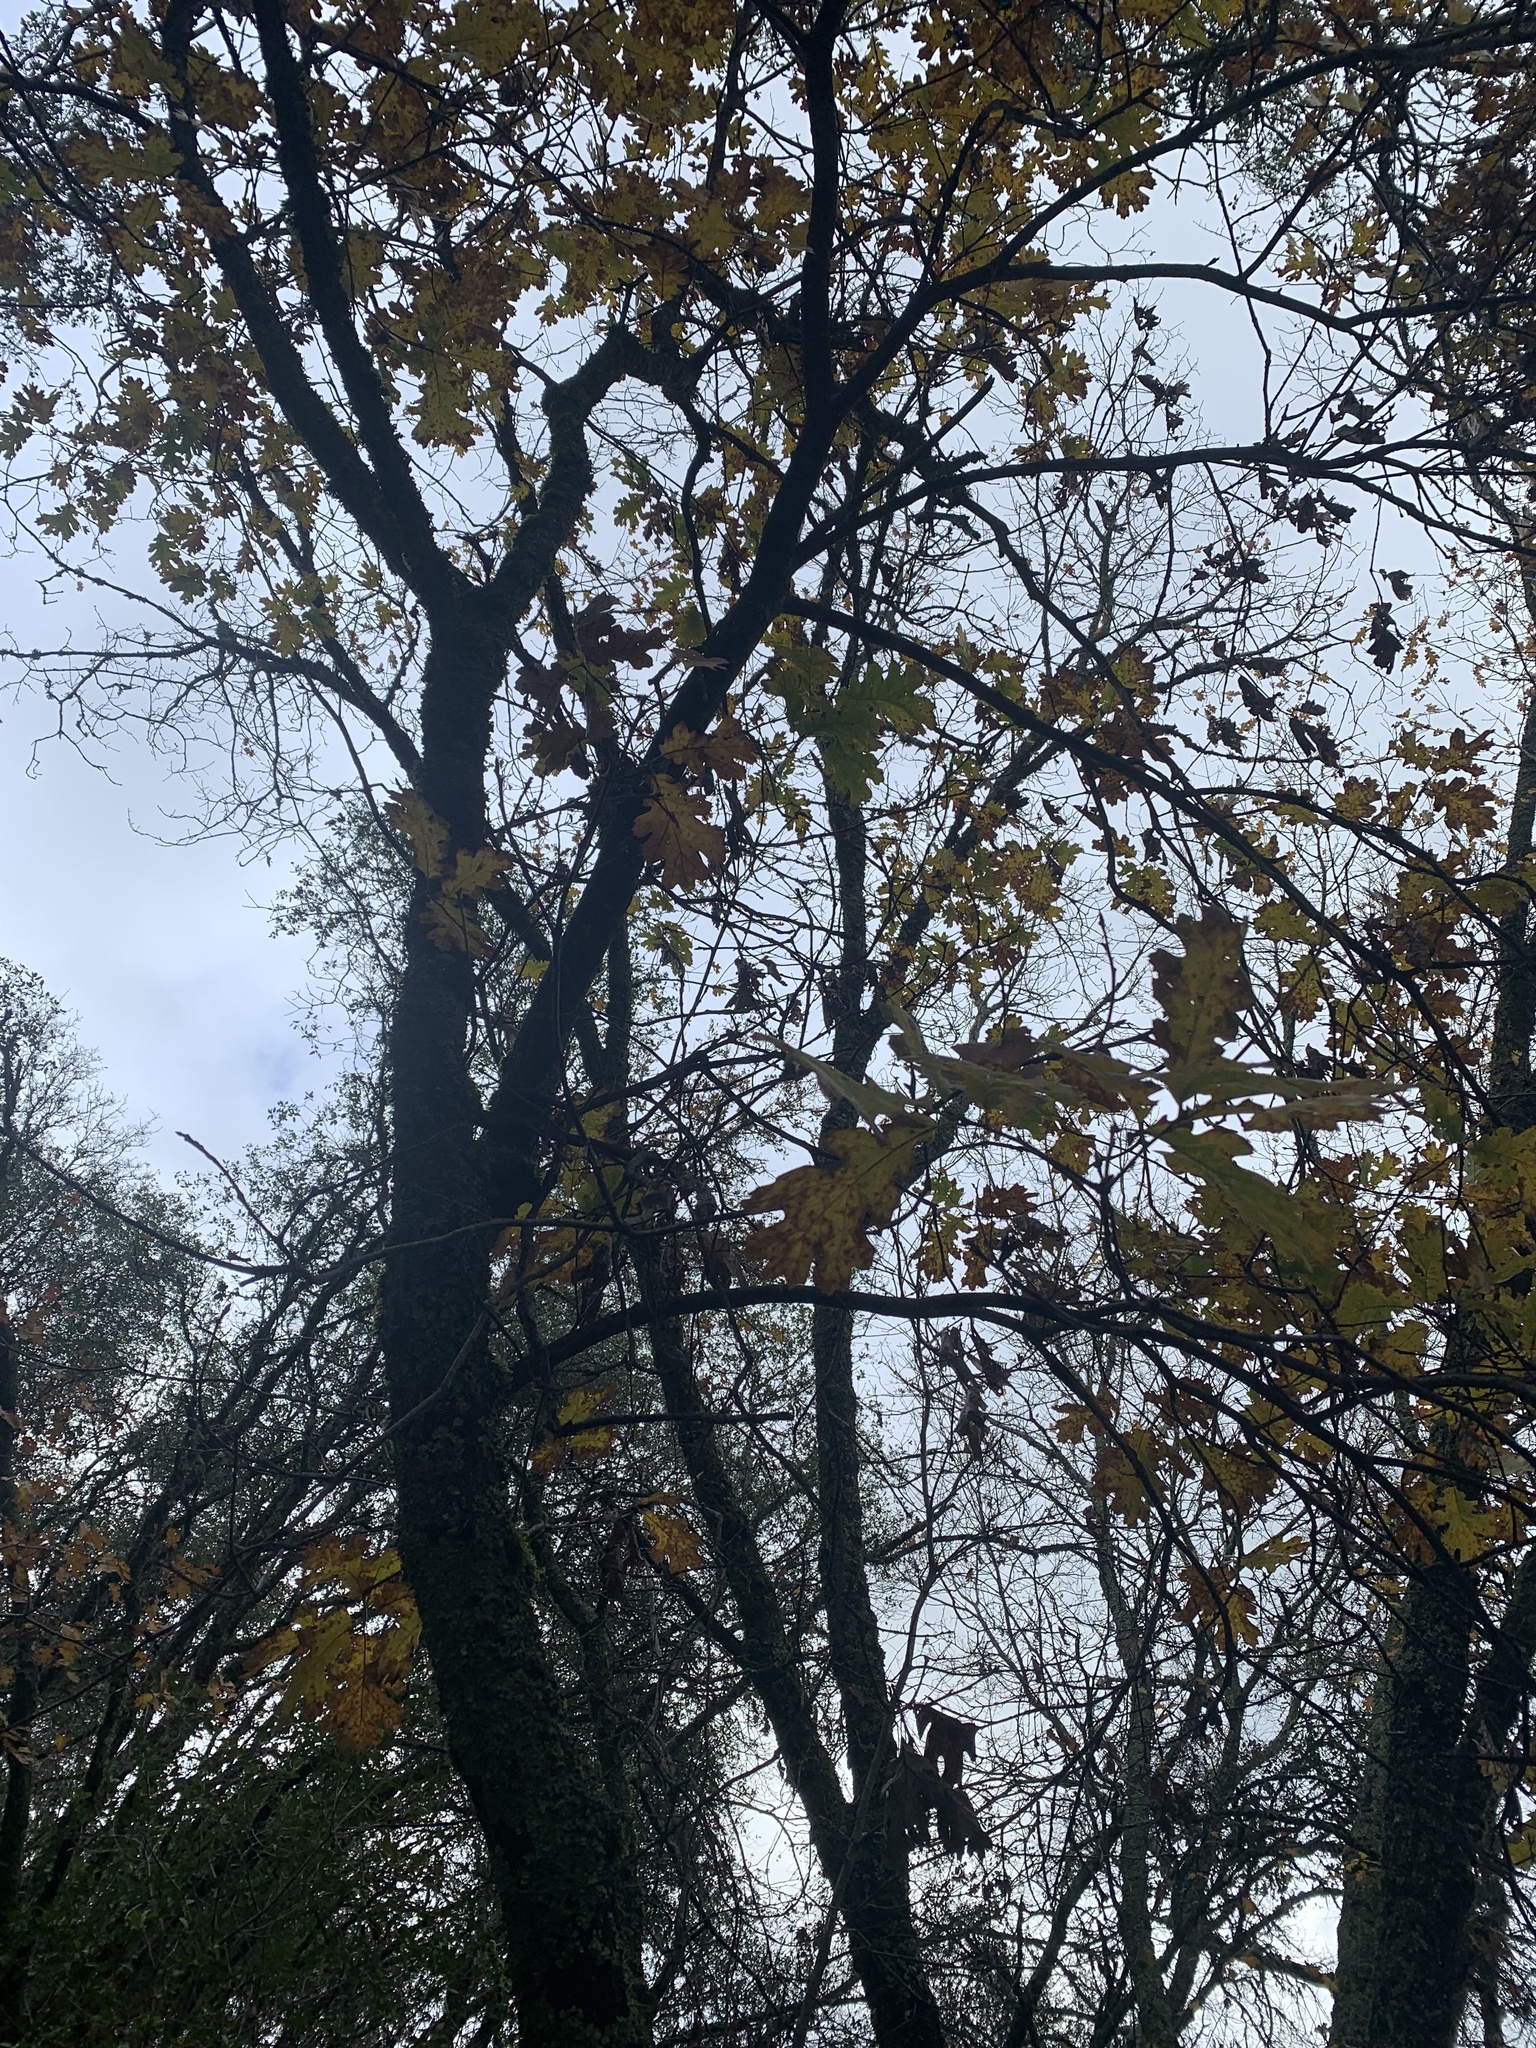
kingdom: Plantae
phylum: Tracheophyta
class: Magnoliopsida
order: Fagales
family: Fagaceae
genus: Quercus
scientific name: Quercus kelloggii
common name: California black oak
